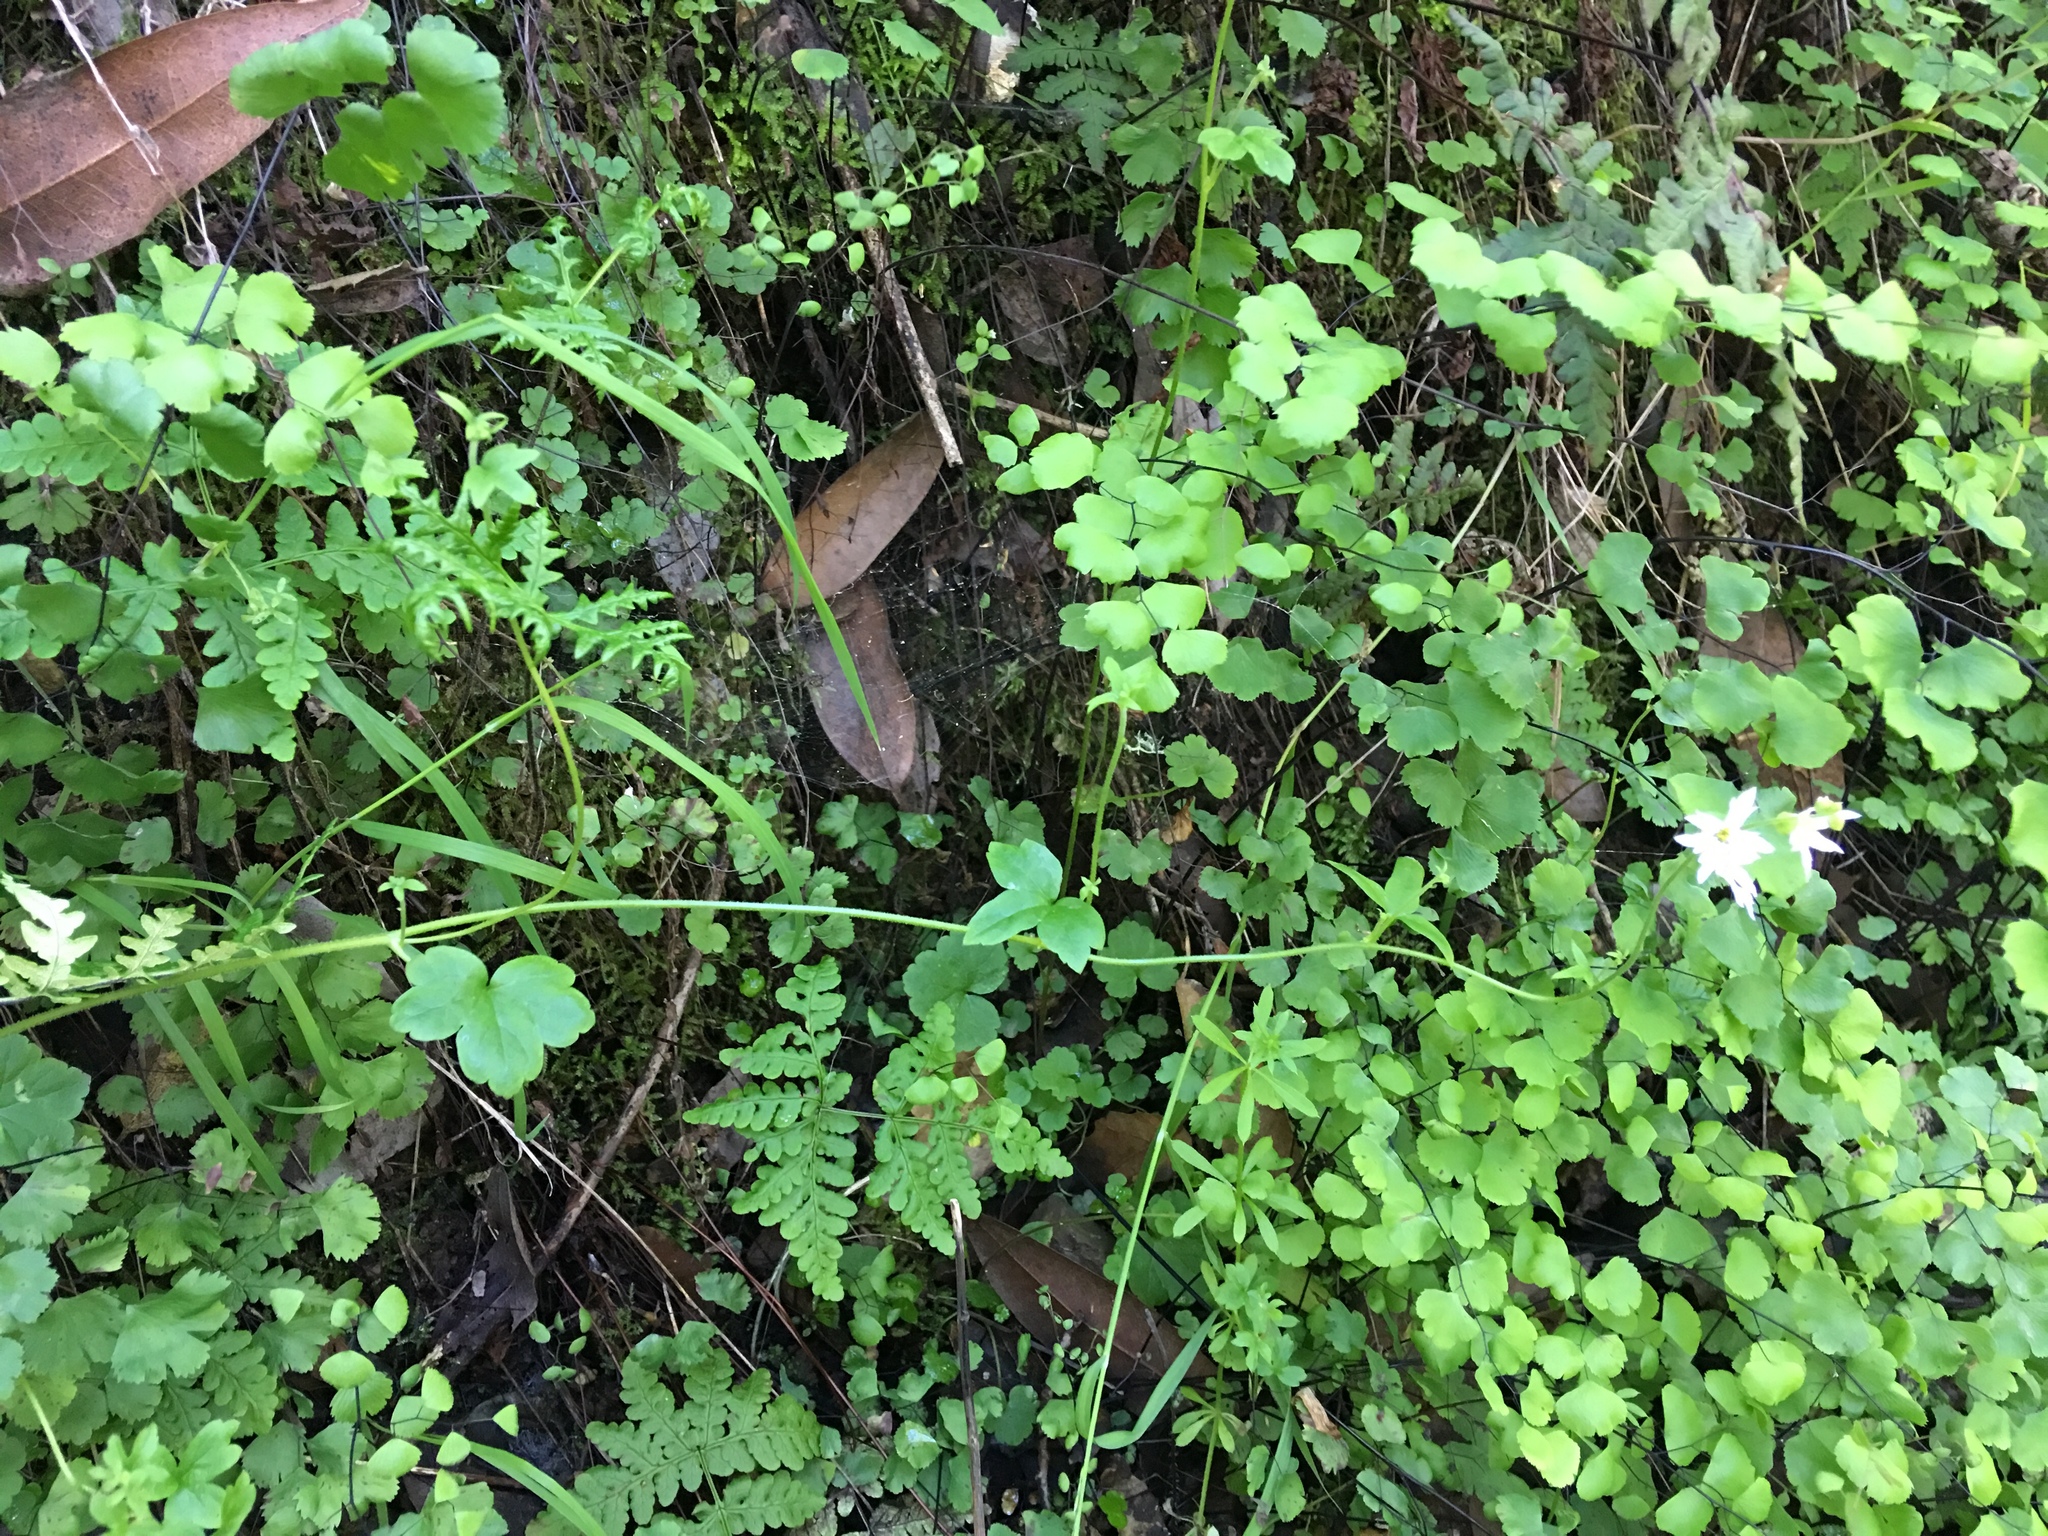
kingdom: Plantae
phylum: Tracheophyta
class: Magnoliopsida
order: Saxifragales
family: Saxifragaceae
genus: Lithophragma
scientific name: Lithophragma heterophyllum
